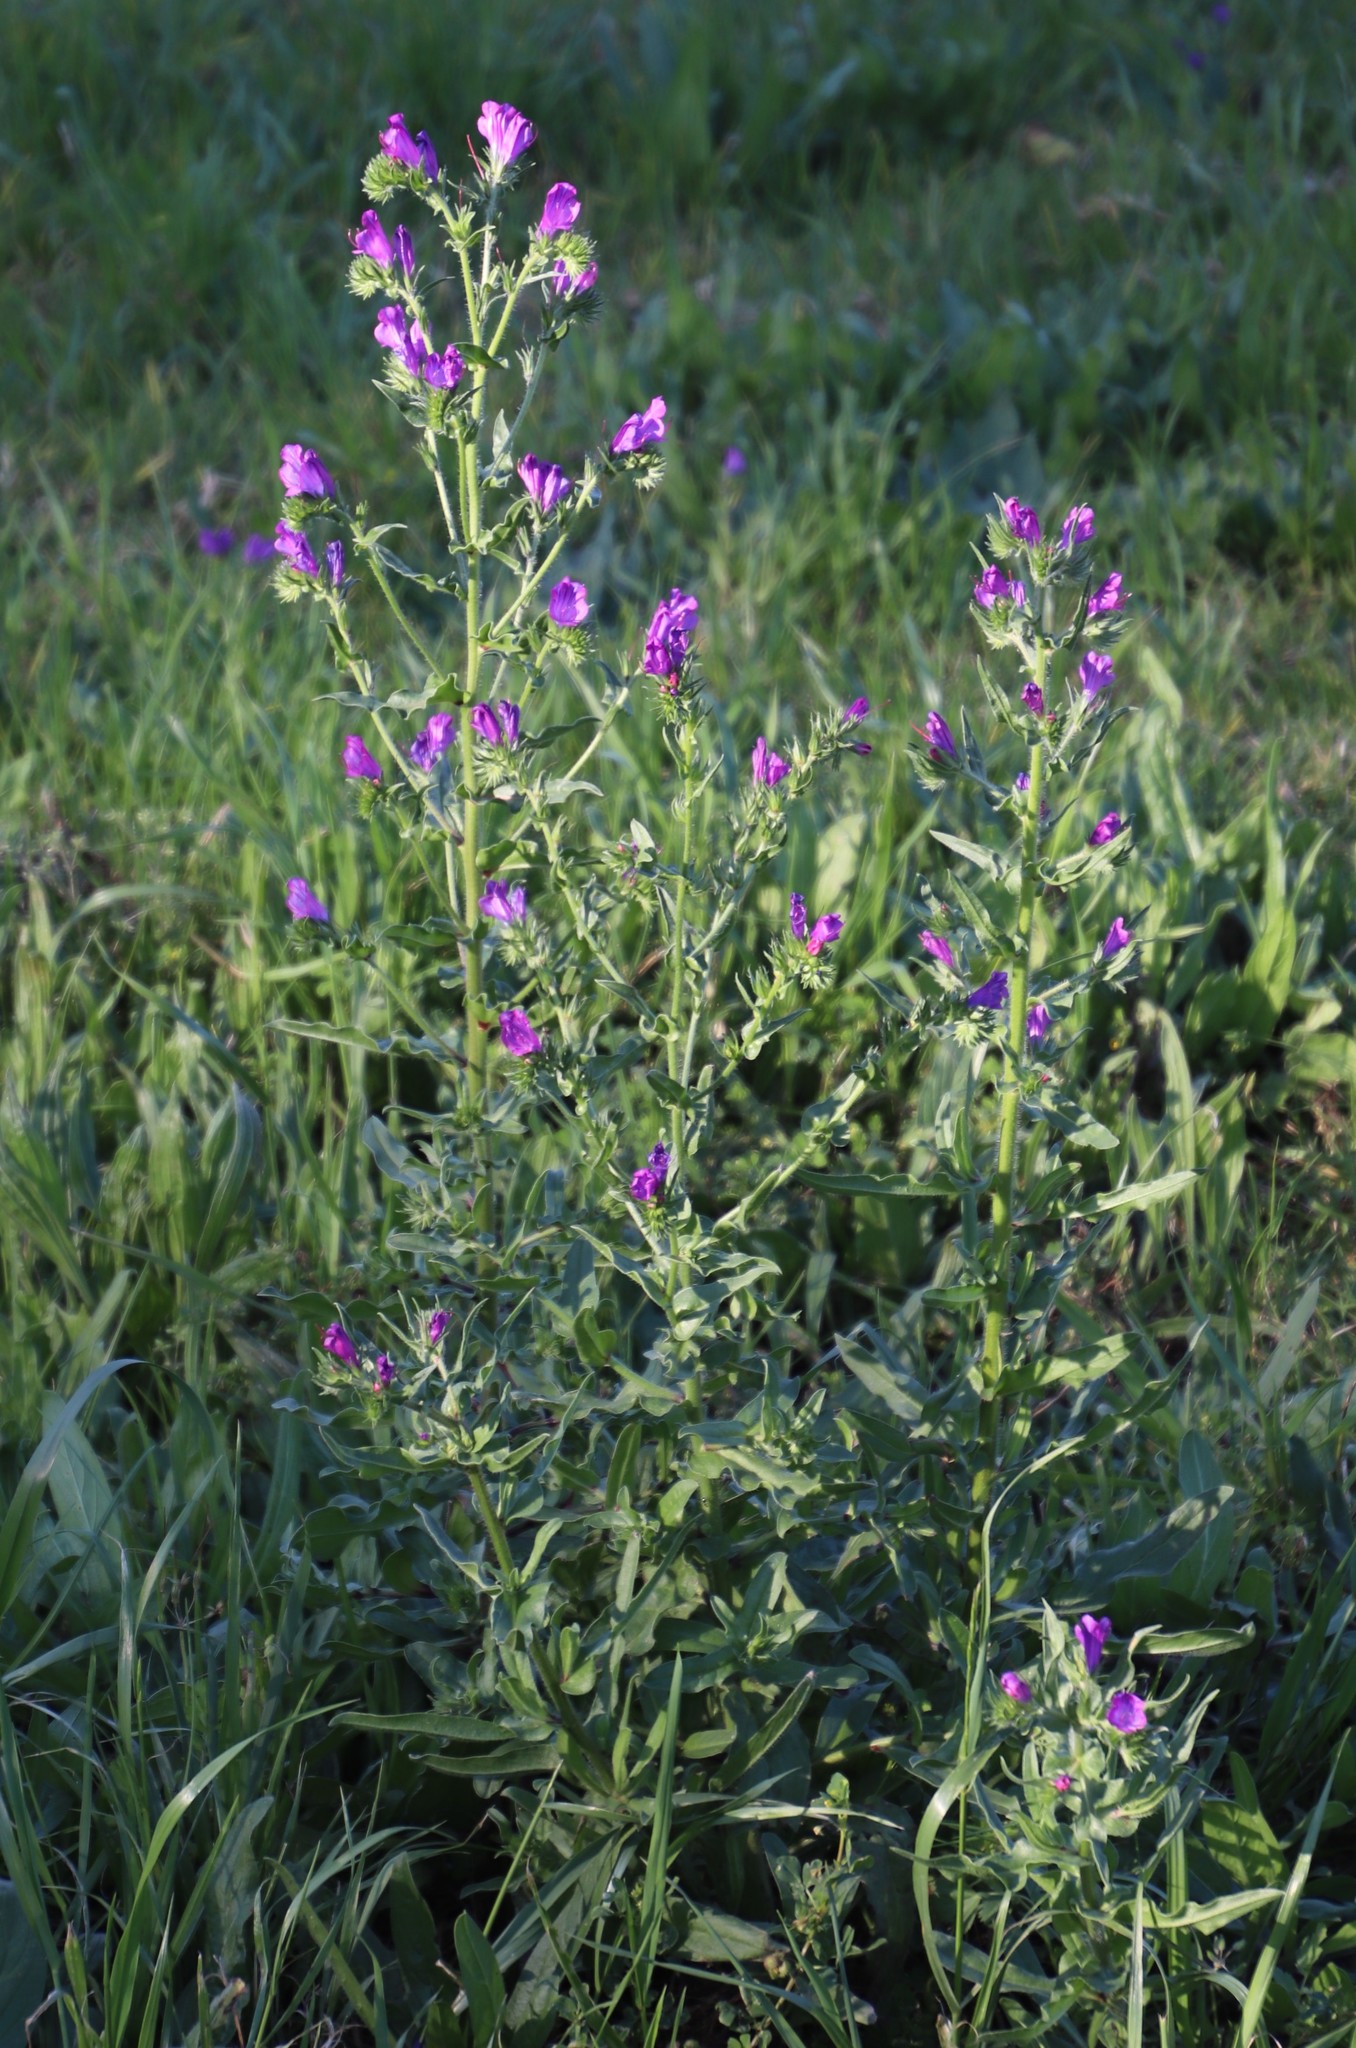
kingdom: Plantae
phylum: Tracheophyta
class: Magnoliopsida
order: Boraginales
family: Boraginaceae
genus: Echium
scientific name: Echium plantagineum
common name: Purple viper's-bugloss
